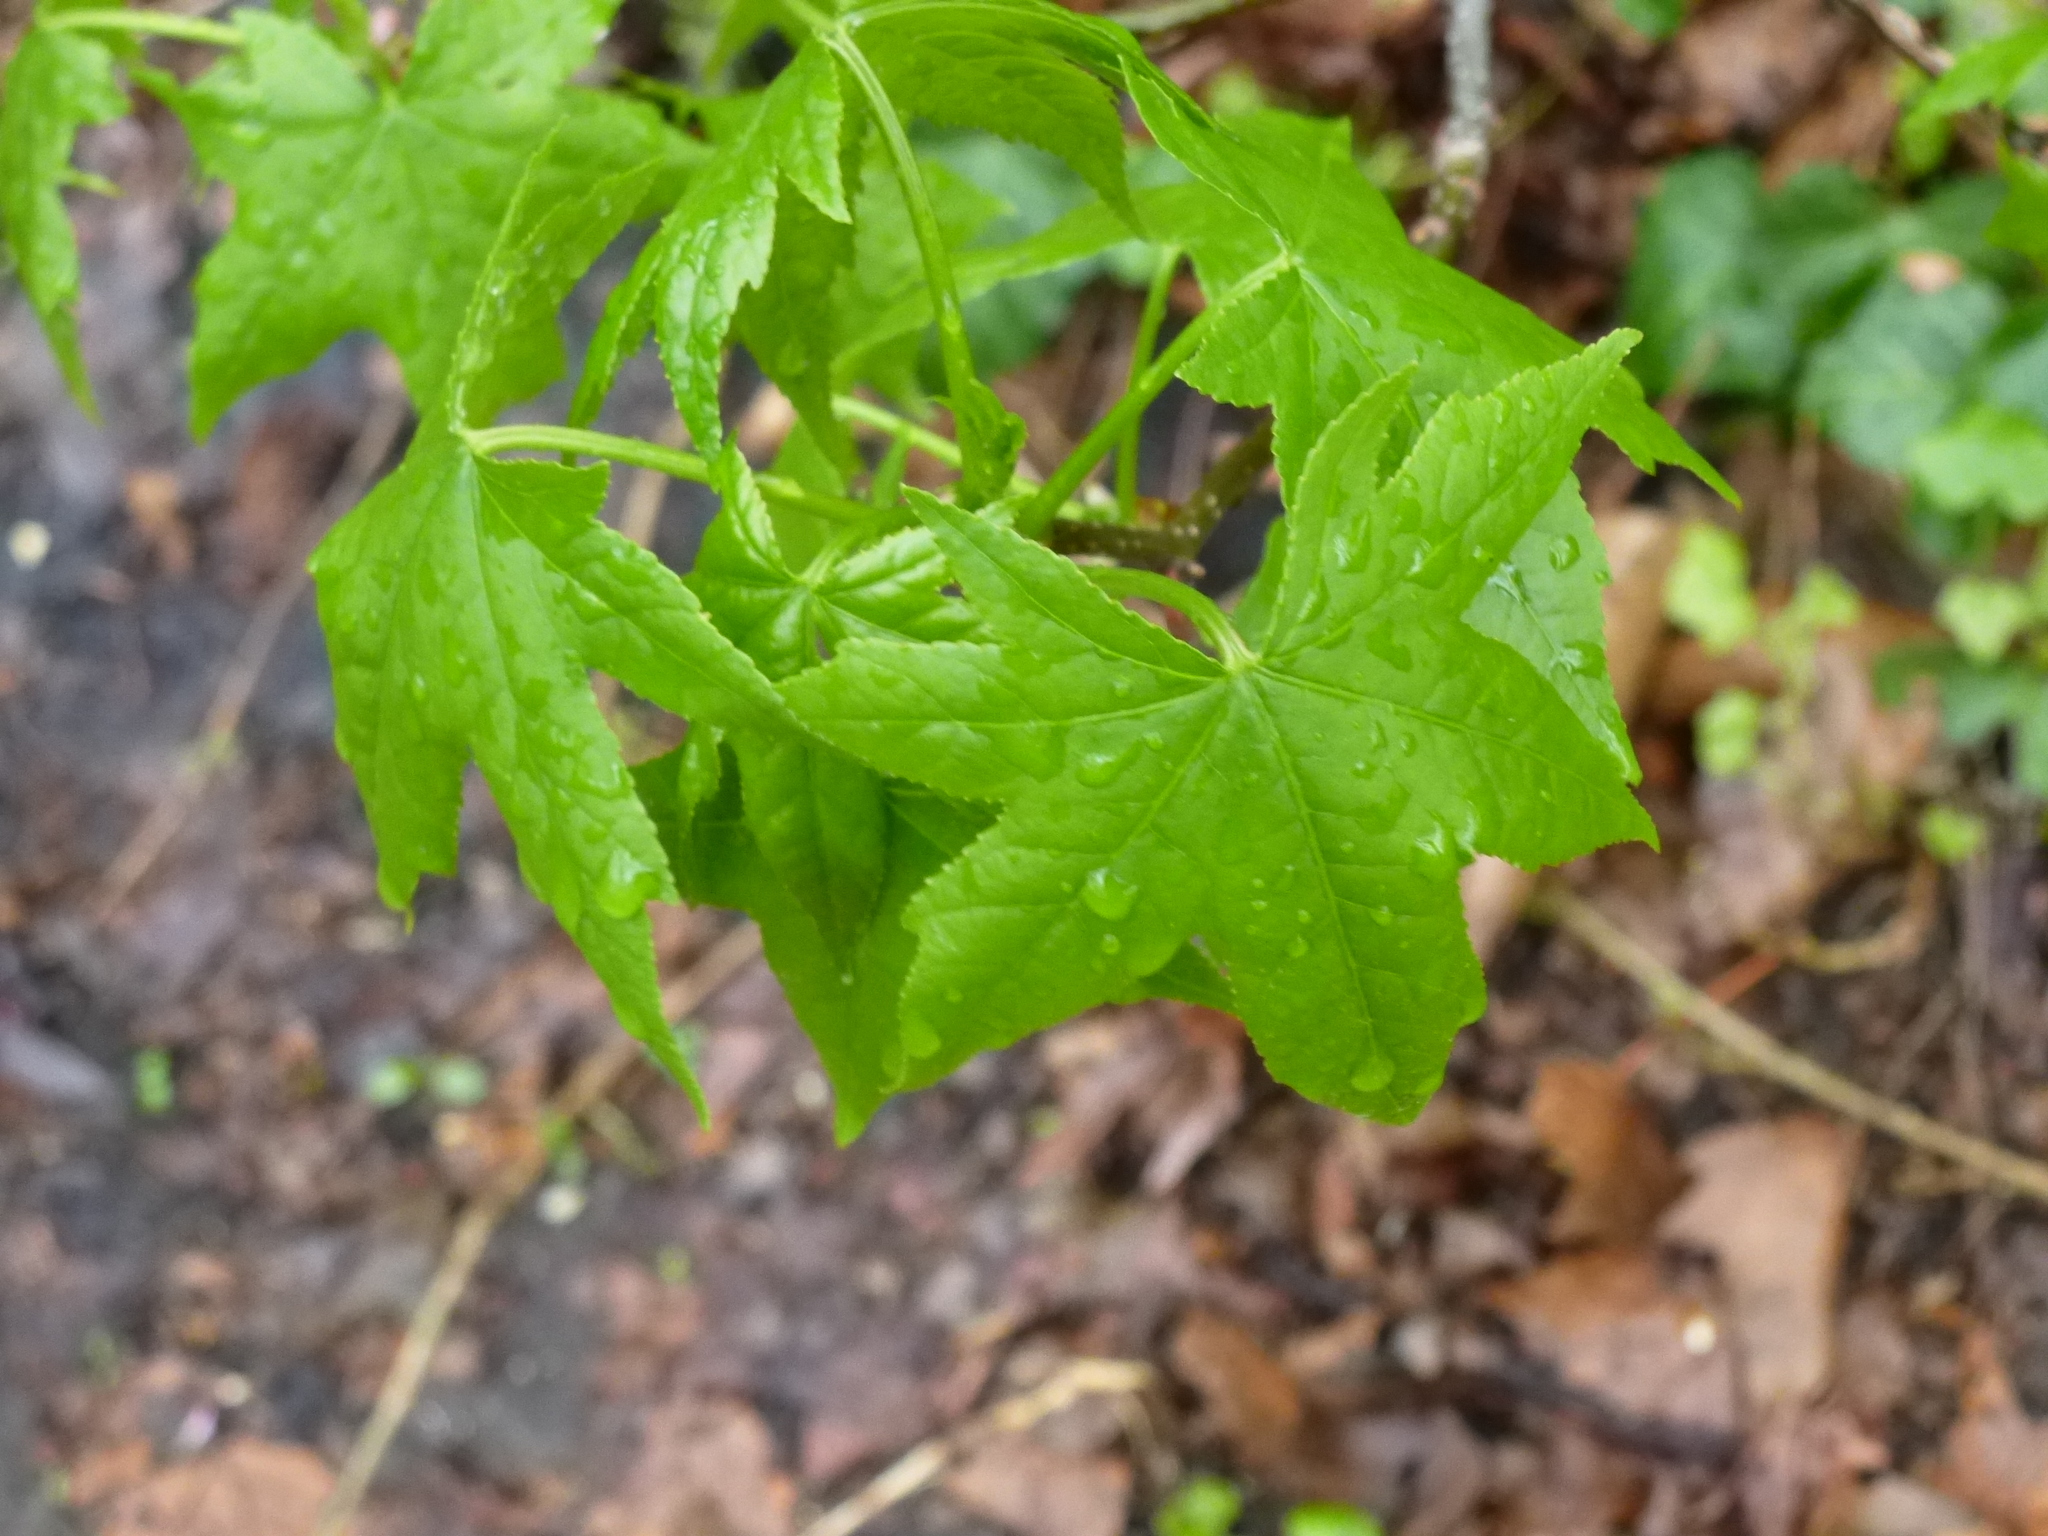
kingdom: Plantae
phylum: Tracheophyta
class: Magnoliopsida
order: Saxifragales
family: Altingiaceae
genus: Liquidambar
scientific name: Liquidambar styraciflua
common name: Sweet gum
